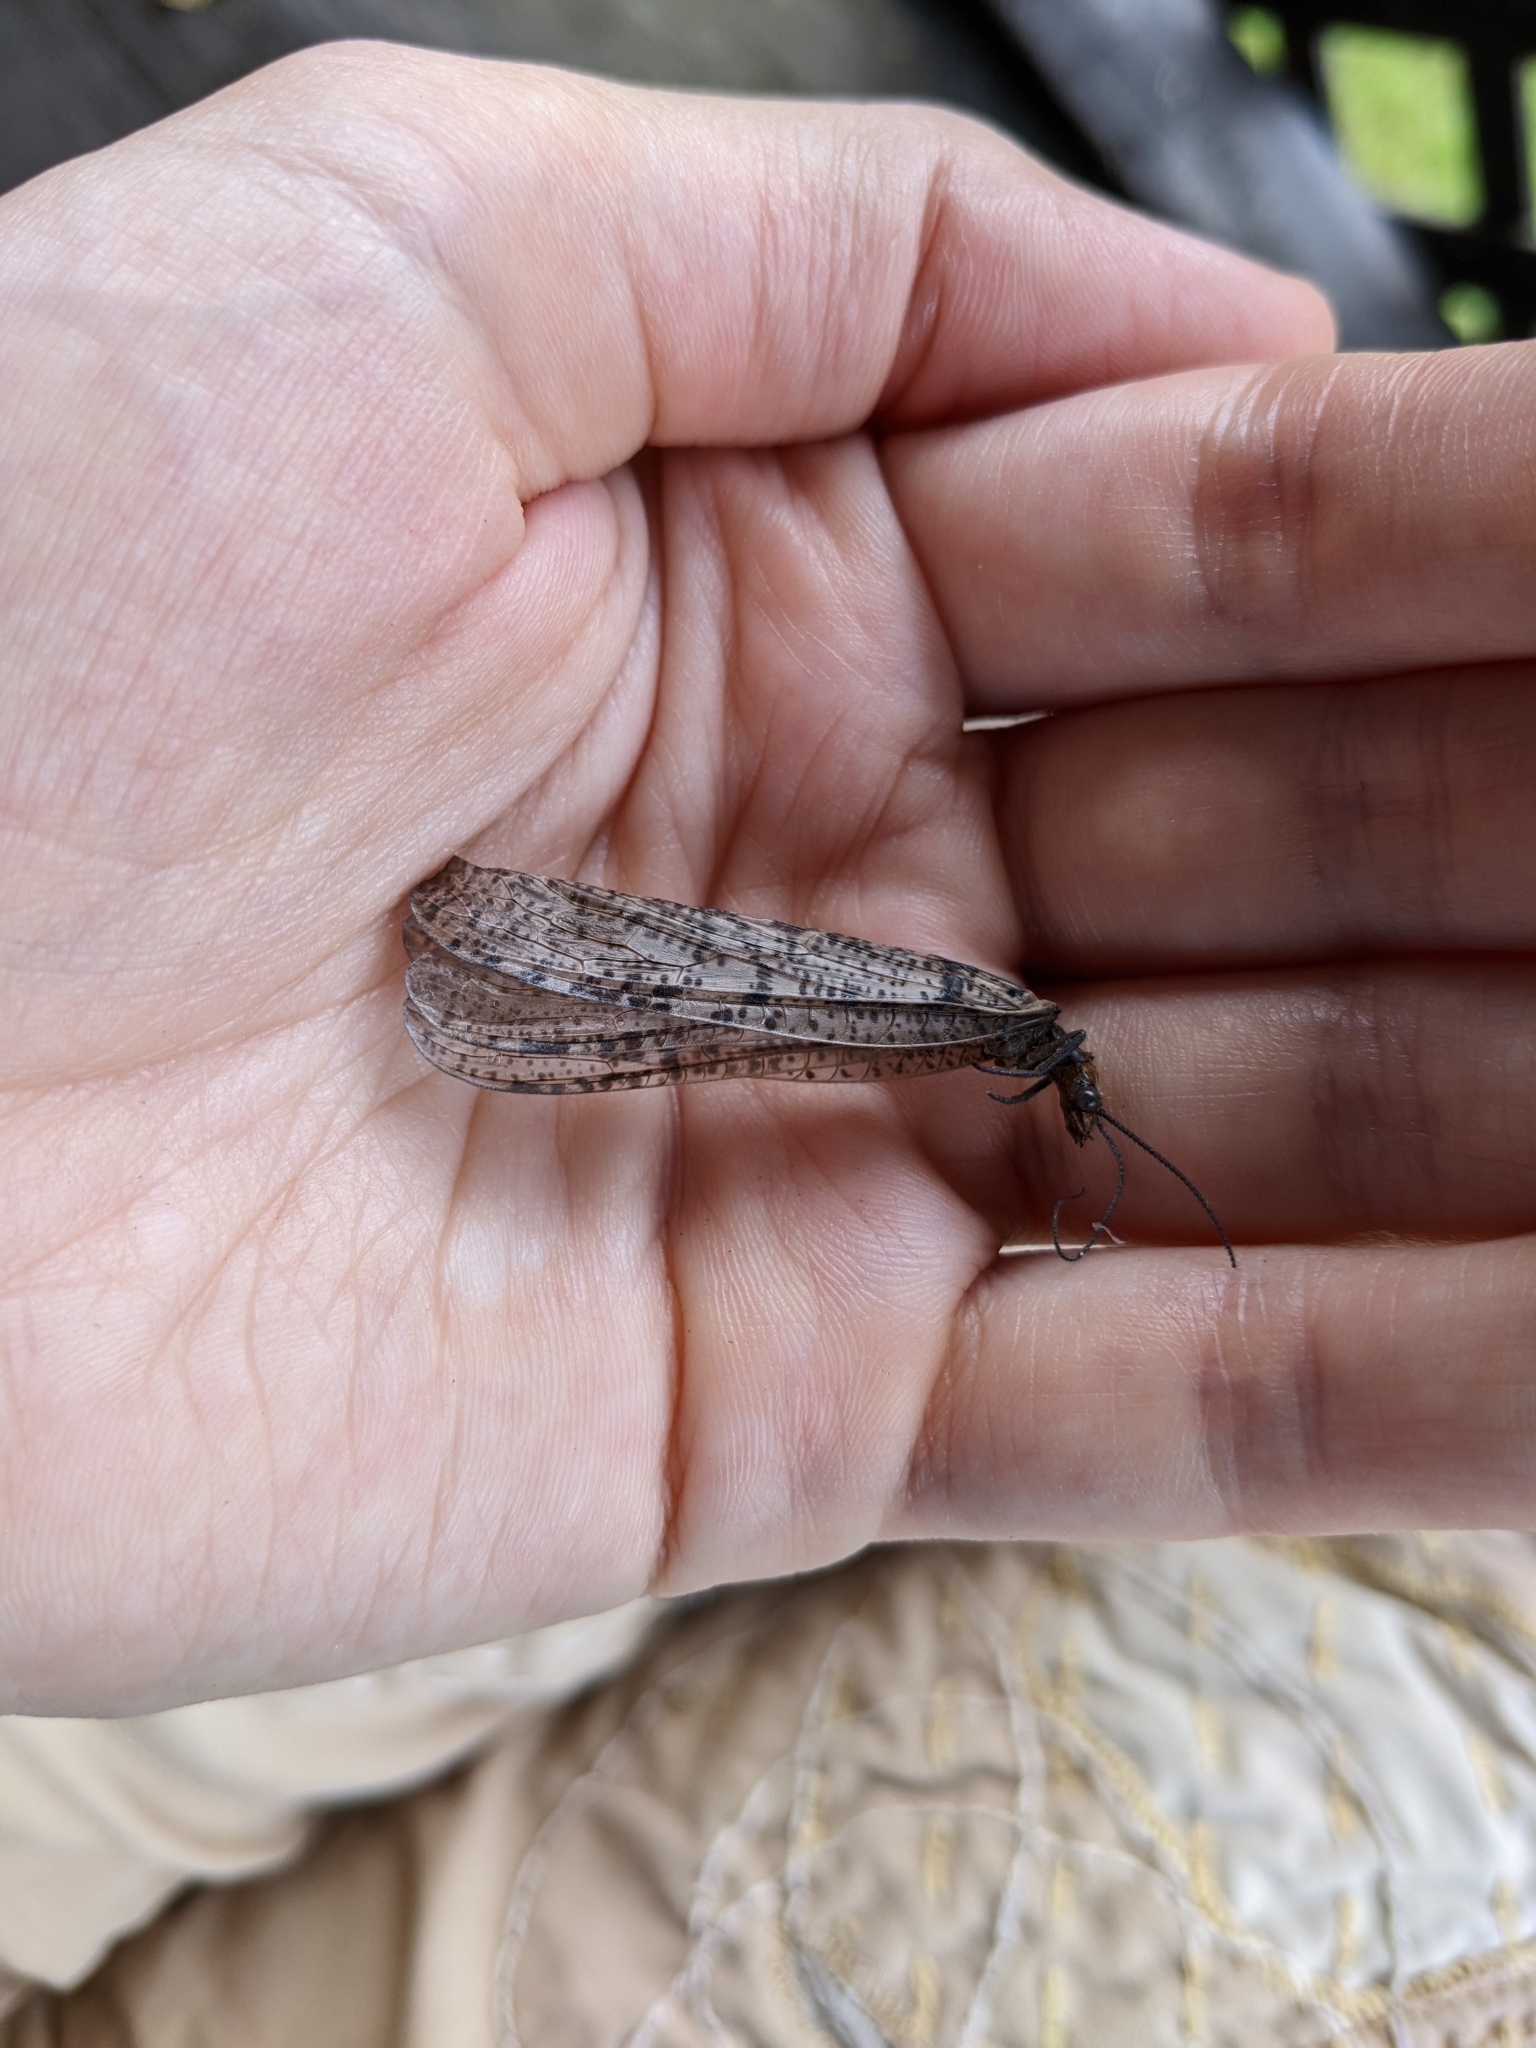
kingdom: Animalia
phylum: Arthropoda
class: Insecta
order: Megaloptera
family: Corydalidae
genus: Neohermes
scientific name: Neohermes concolor
